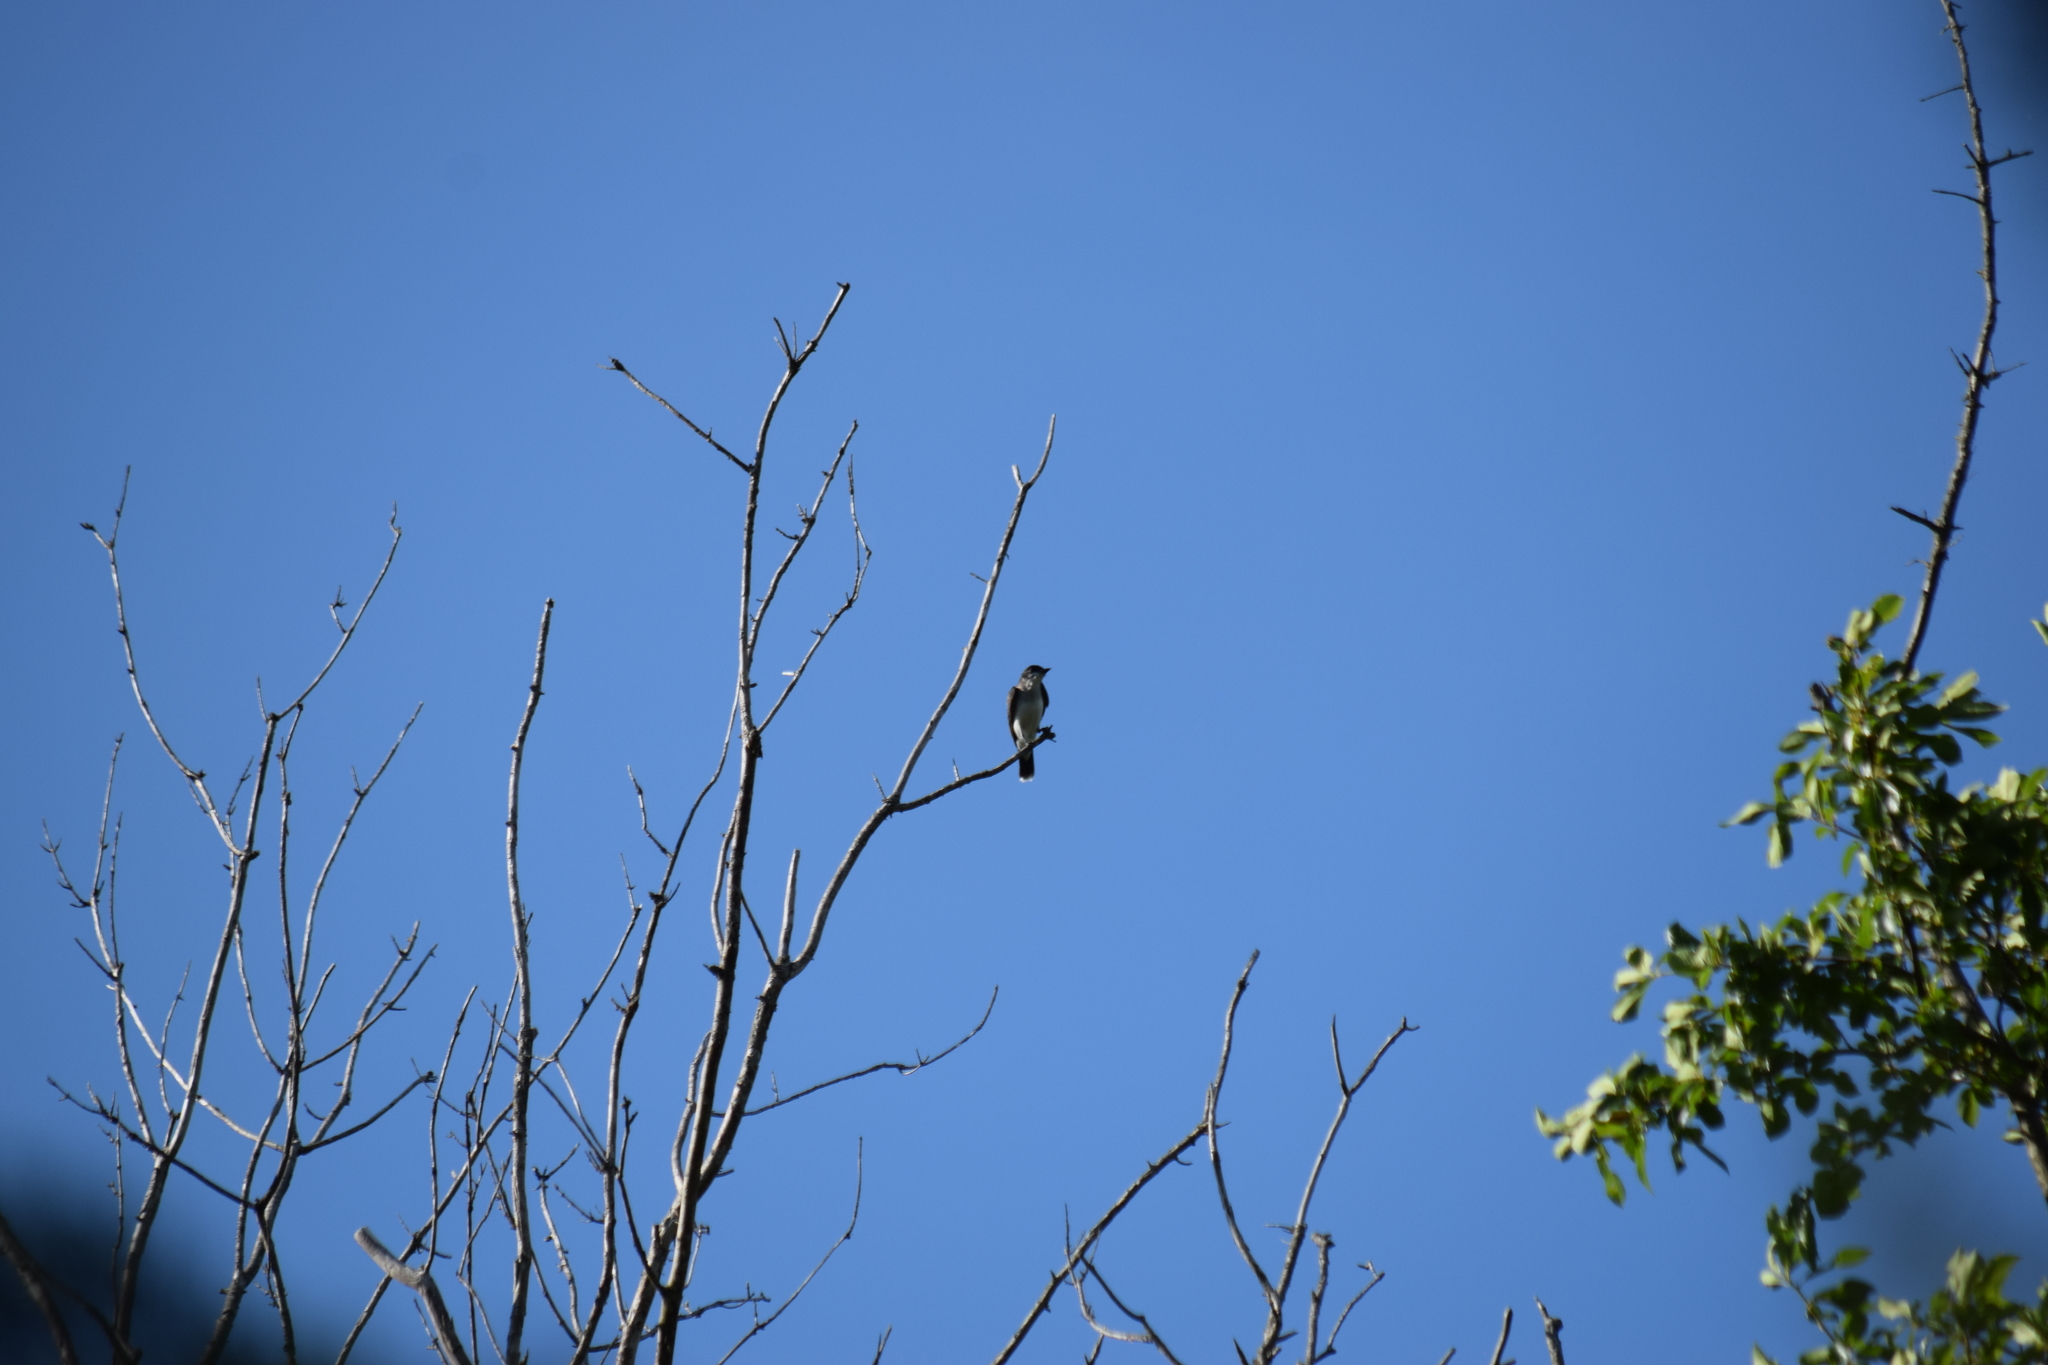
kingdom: Animalia
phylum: Chordata
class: Aves
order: Passeriformes
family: Tyrannidae
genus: Tyrannus
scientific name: Tyrannus tyrannus
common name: Eastern kingbird
